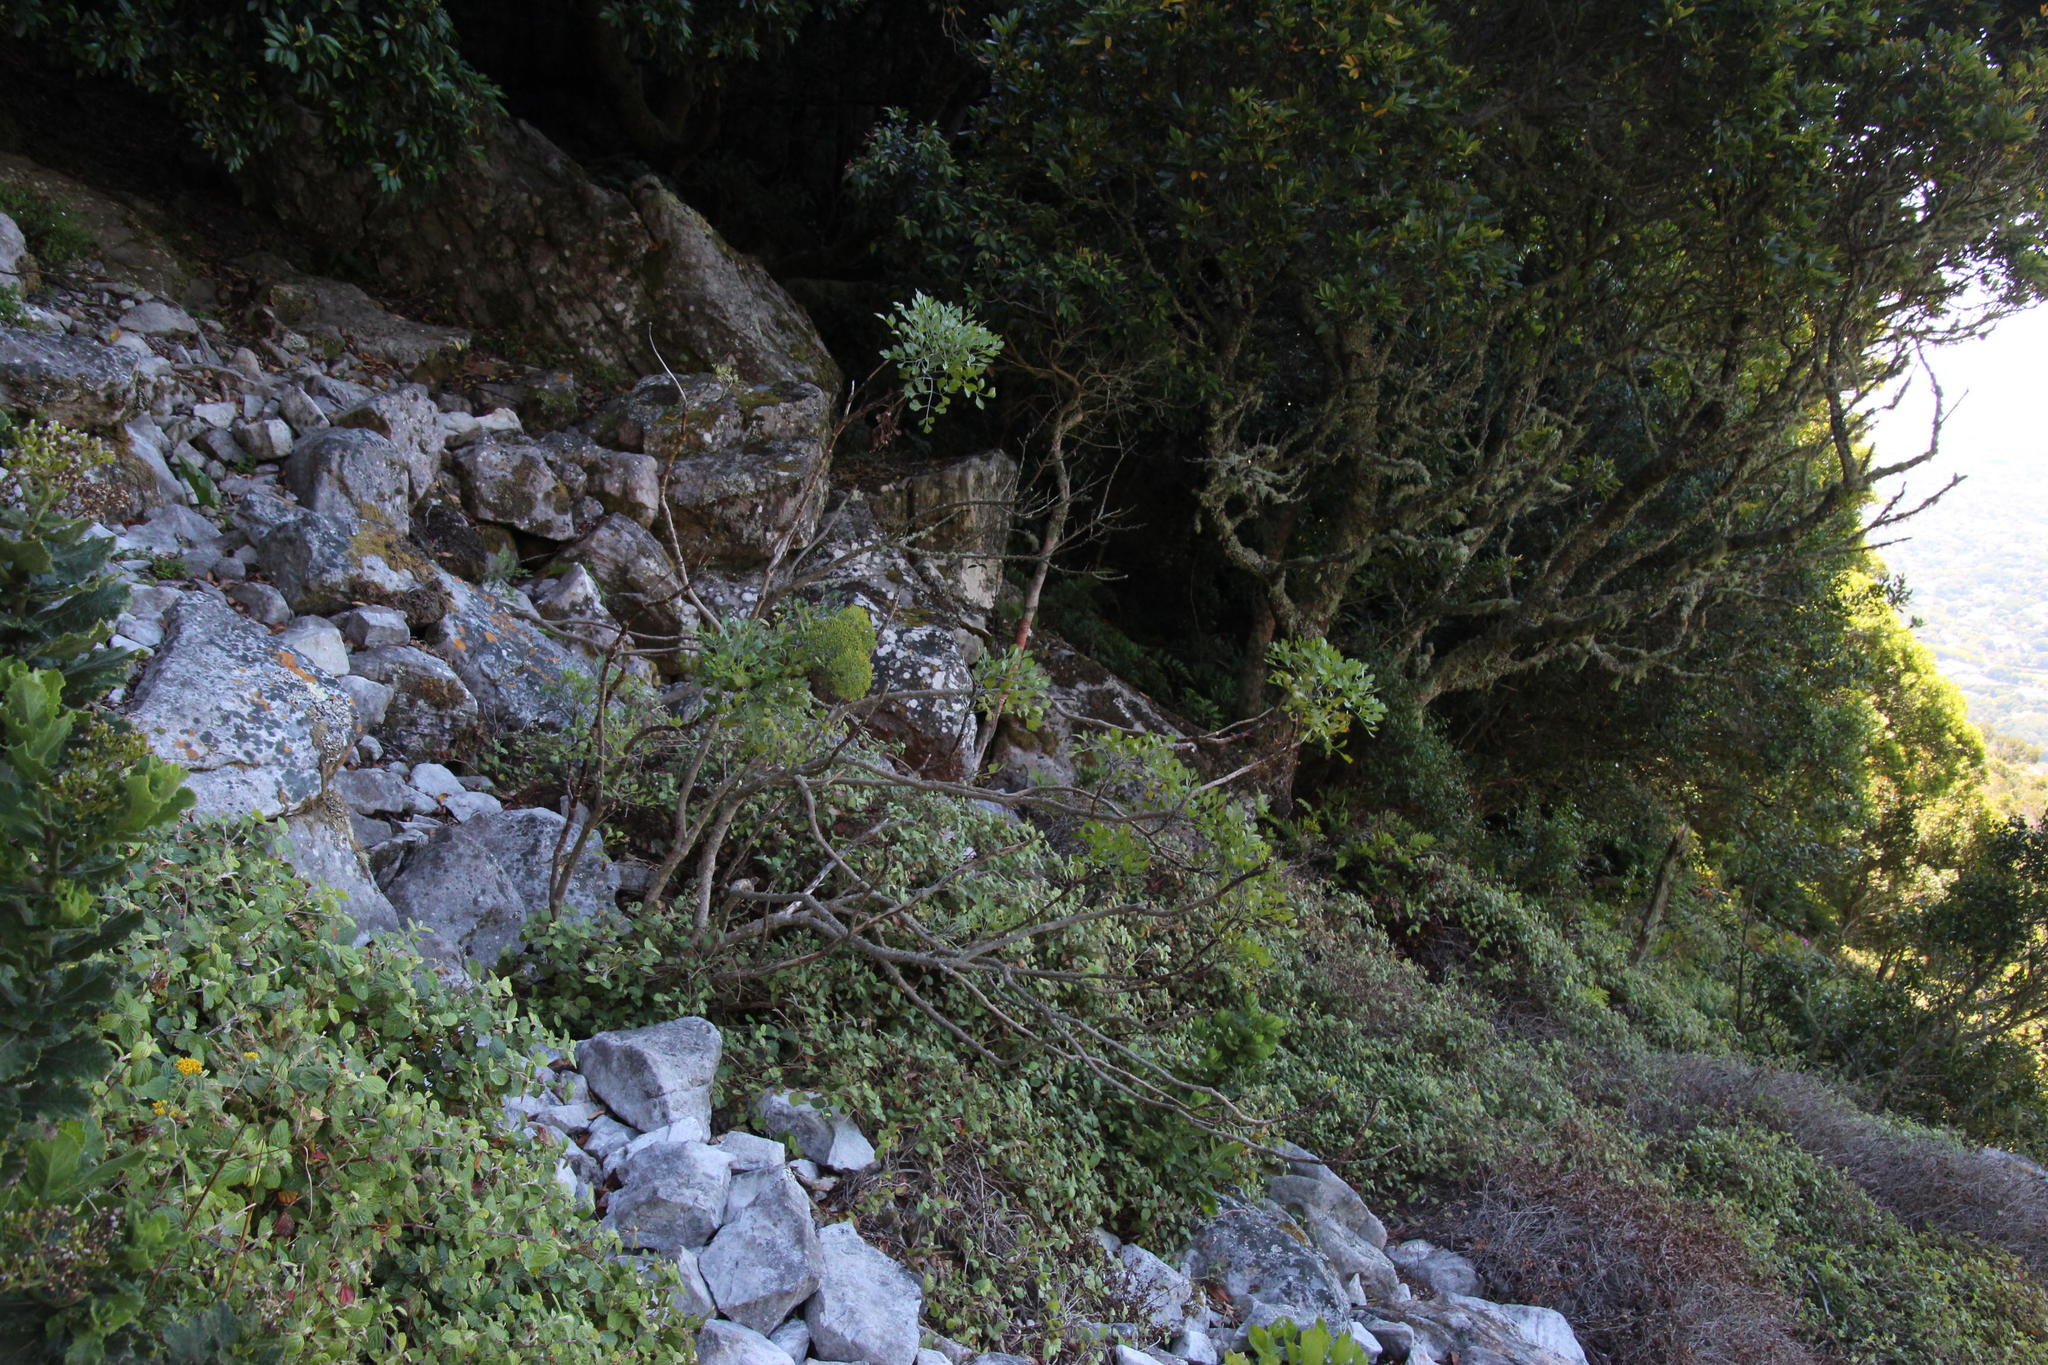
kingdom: Plantae
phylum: Tracheophyta
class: Magnoliopsida
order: Apiales
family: Apiaceae
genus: Notobubon
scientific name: Notobubon galbanum
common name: Blisterbush
